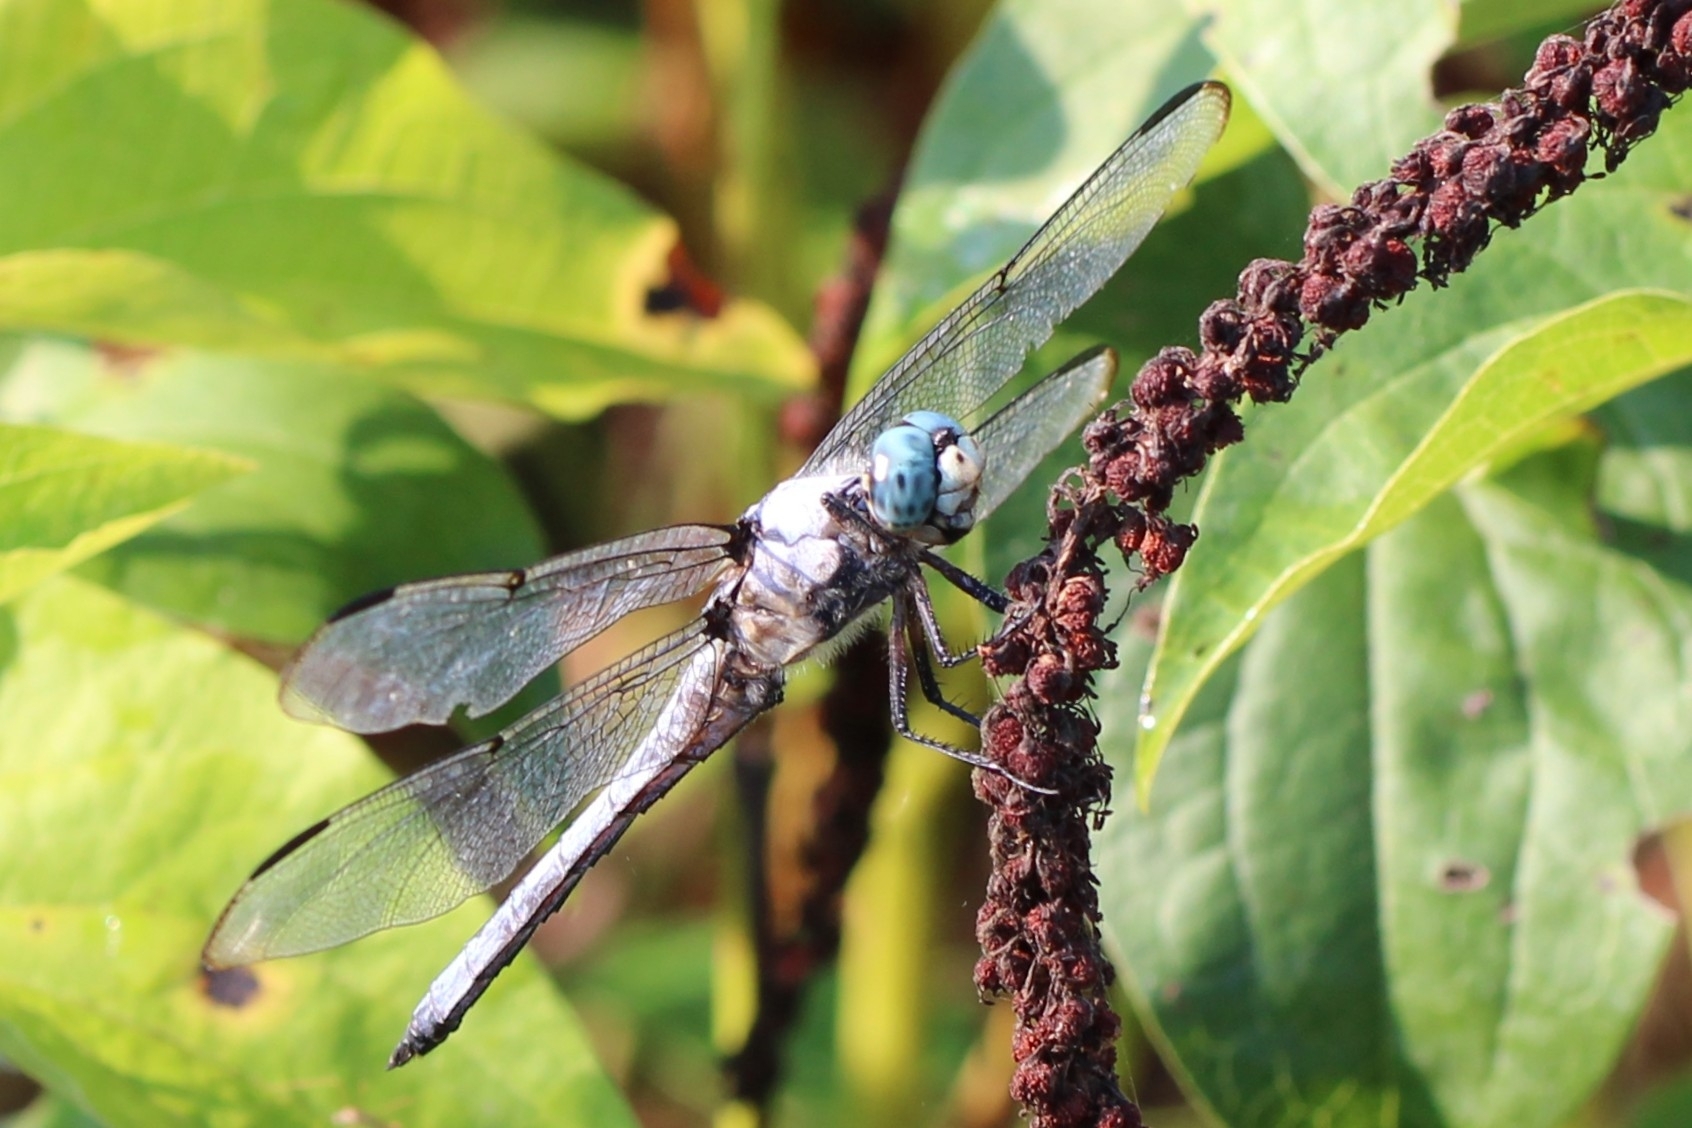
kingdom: Animalia
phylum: Arthropoda
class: Insecta
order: Odonata
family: Libellulidae
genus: Libellula
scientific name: Libellula vibrans
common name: Great blue skimmer
